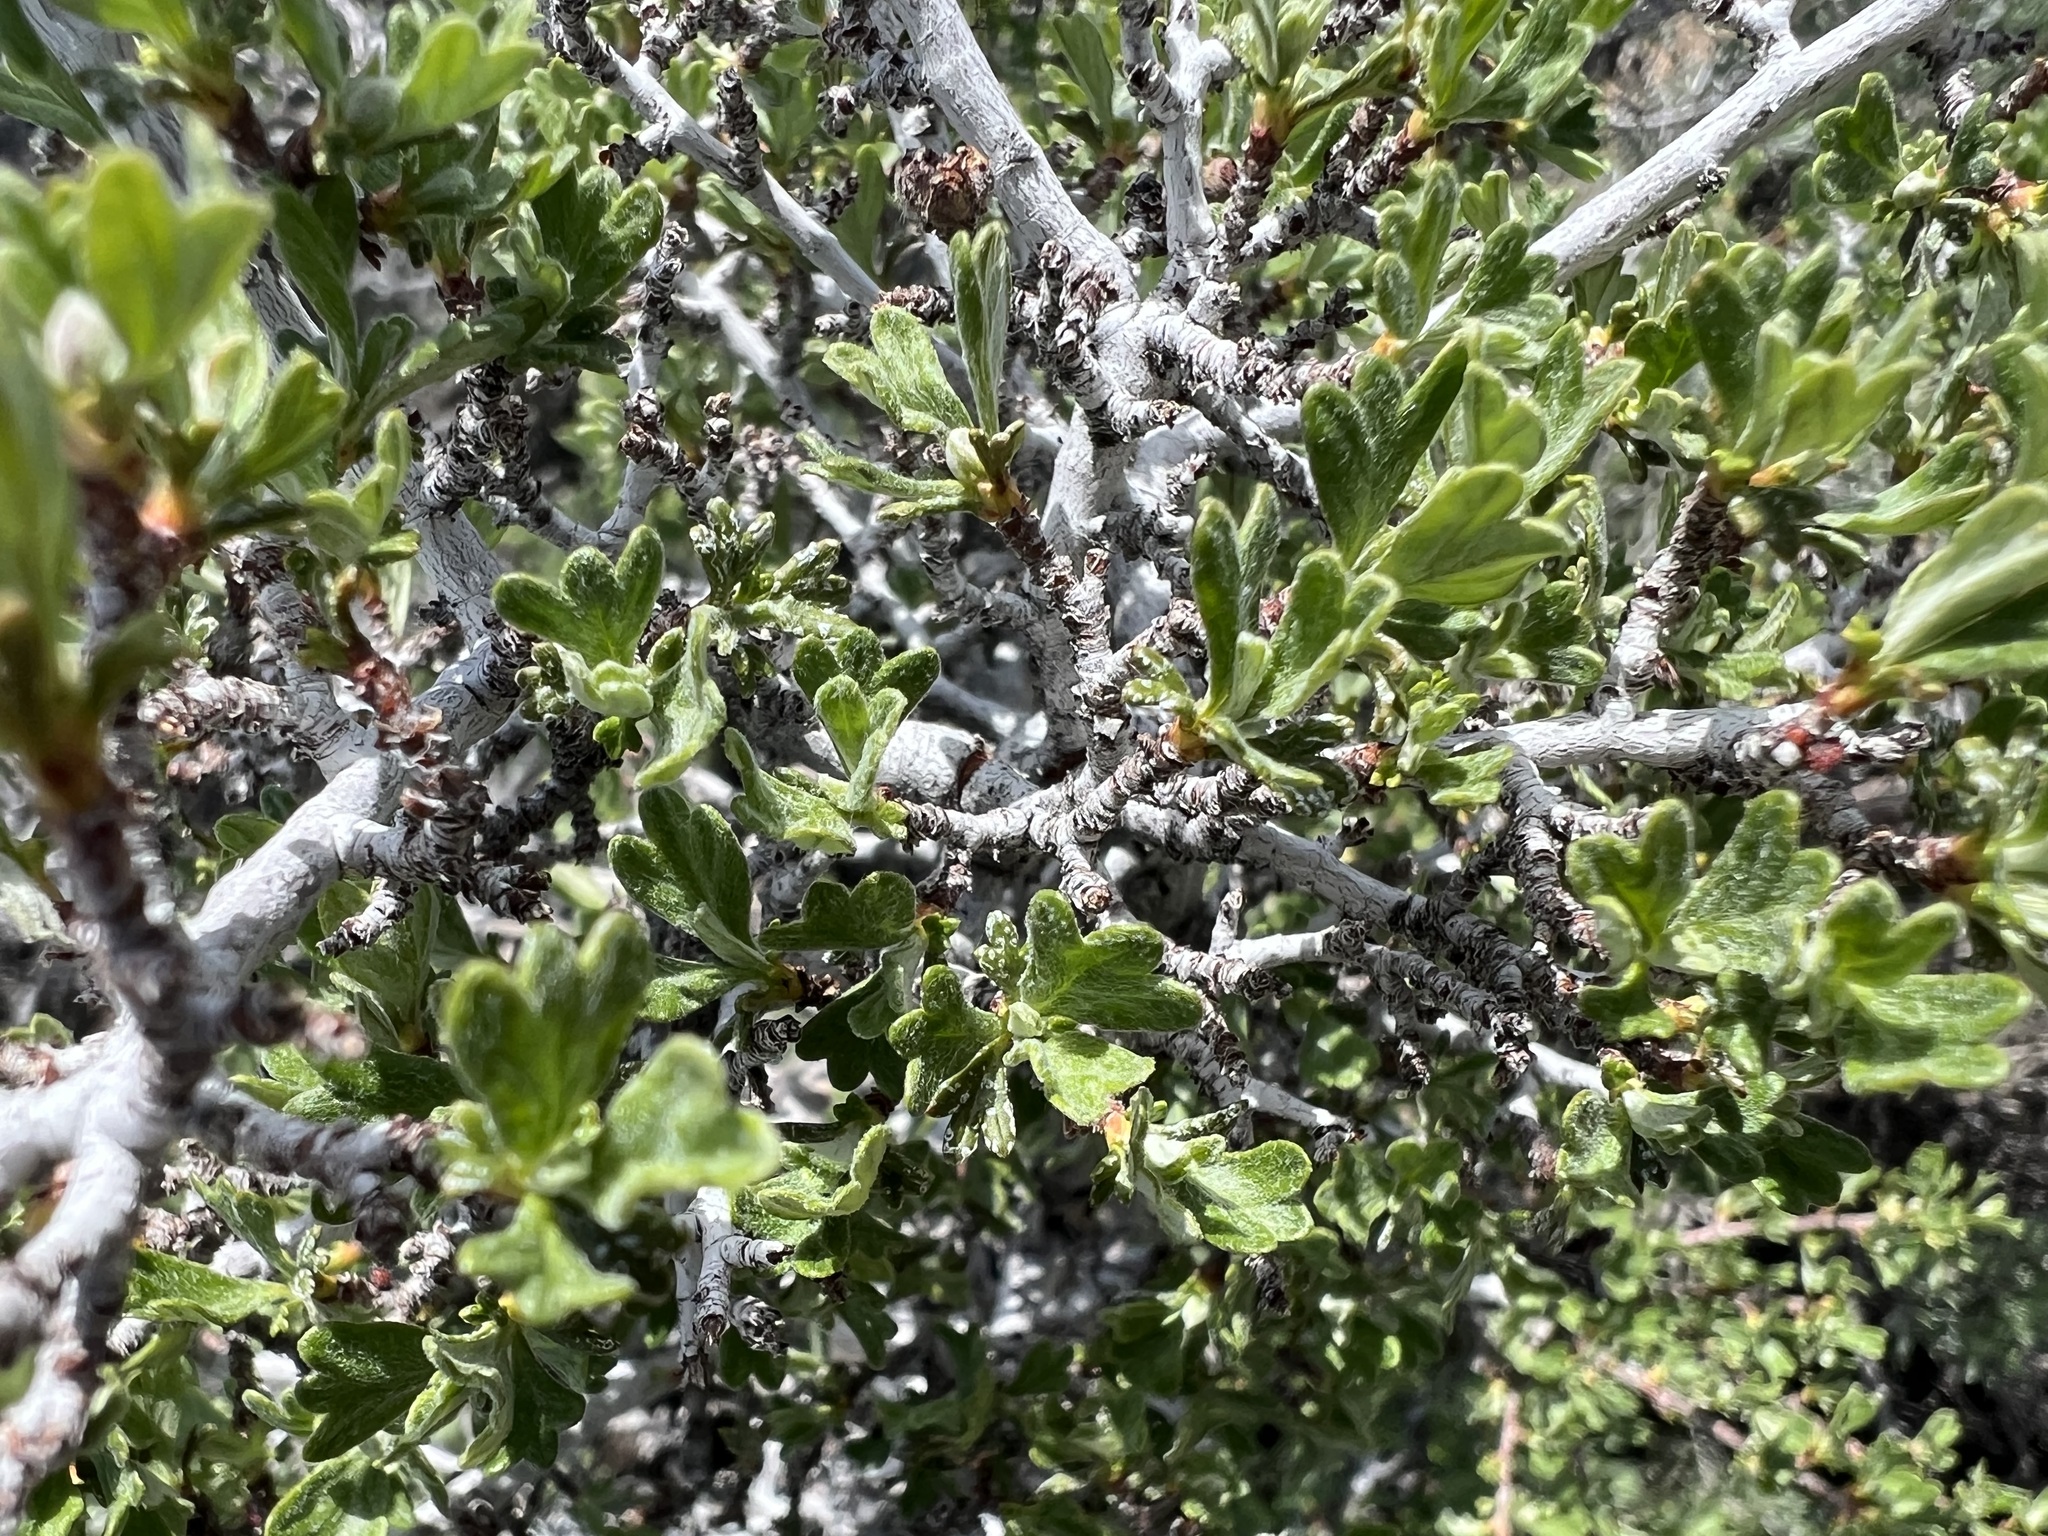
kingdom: Plantae
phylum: Tracheophyta
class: Magnoliopsida
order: Rosales
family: Rosaceae
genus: Purshia
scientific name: Purshia tridentata
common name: Antelope bitterbrush
